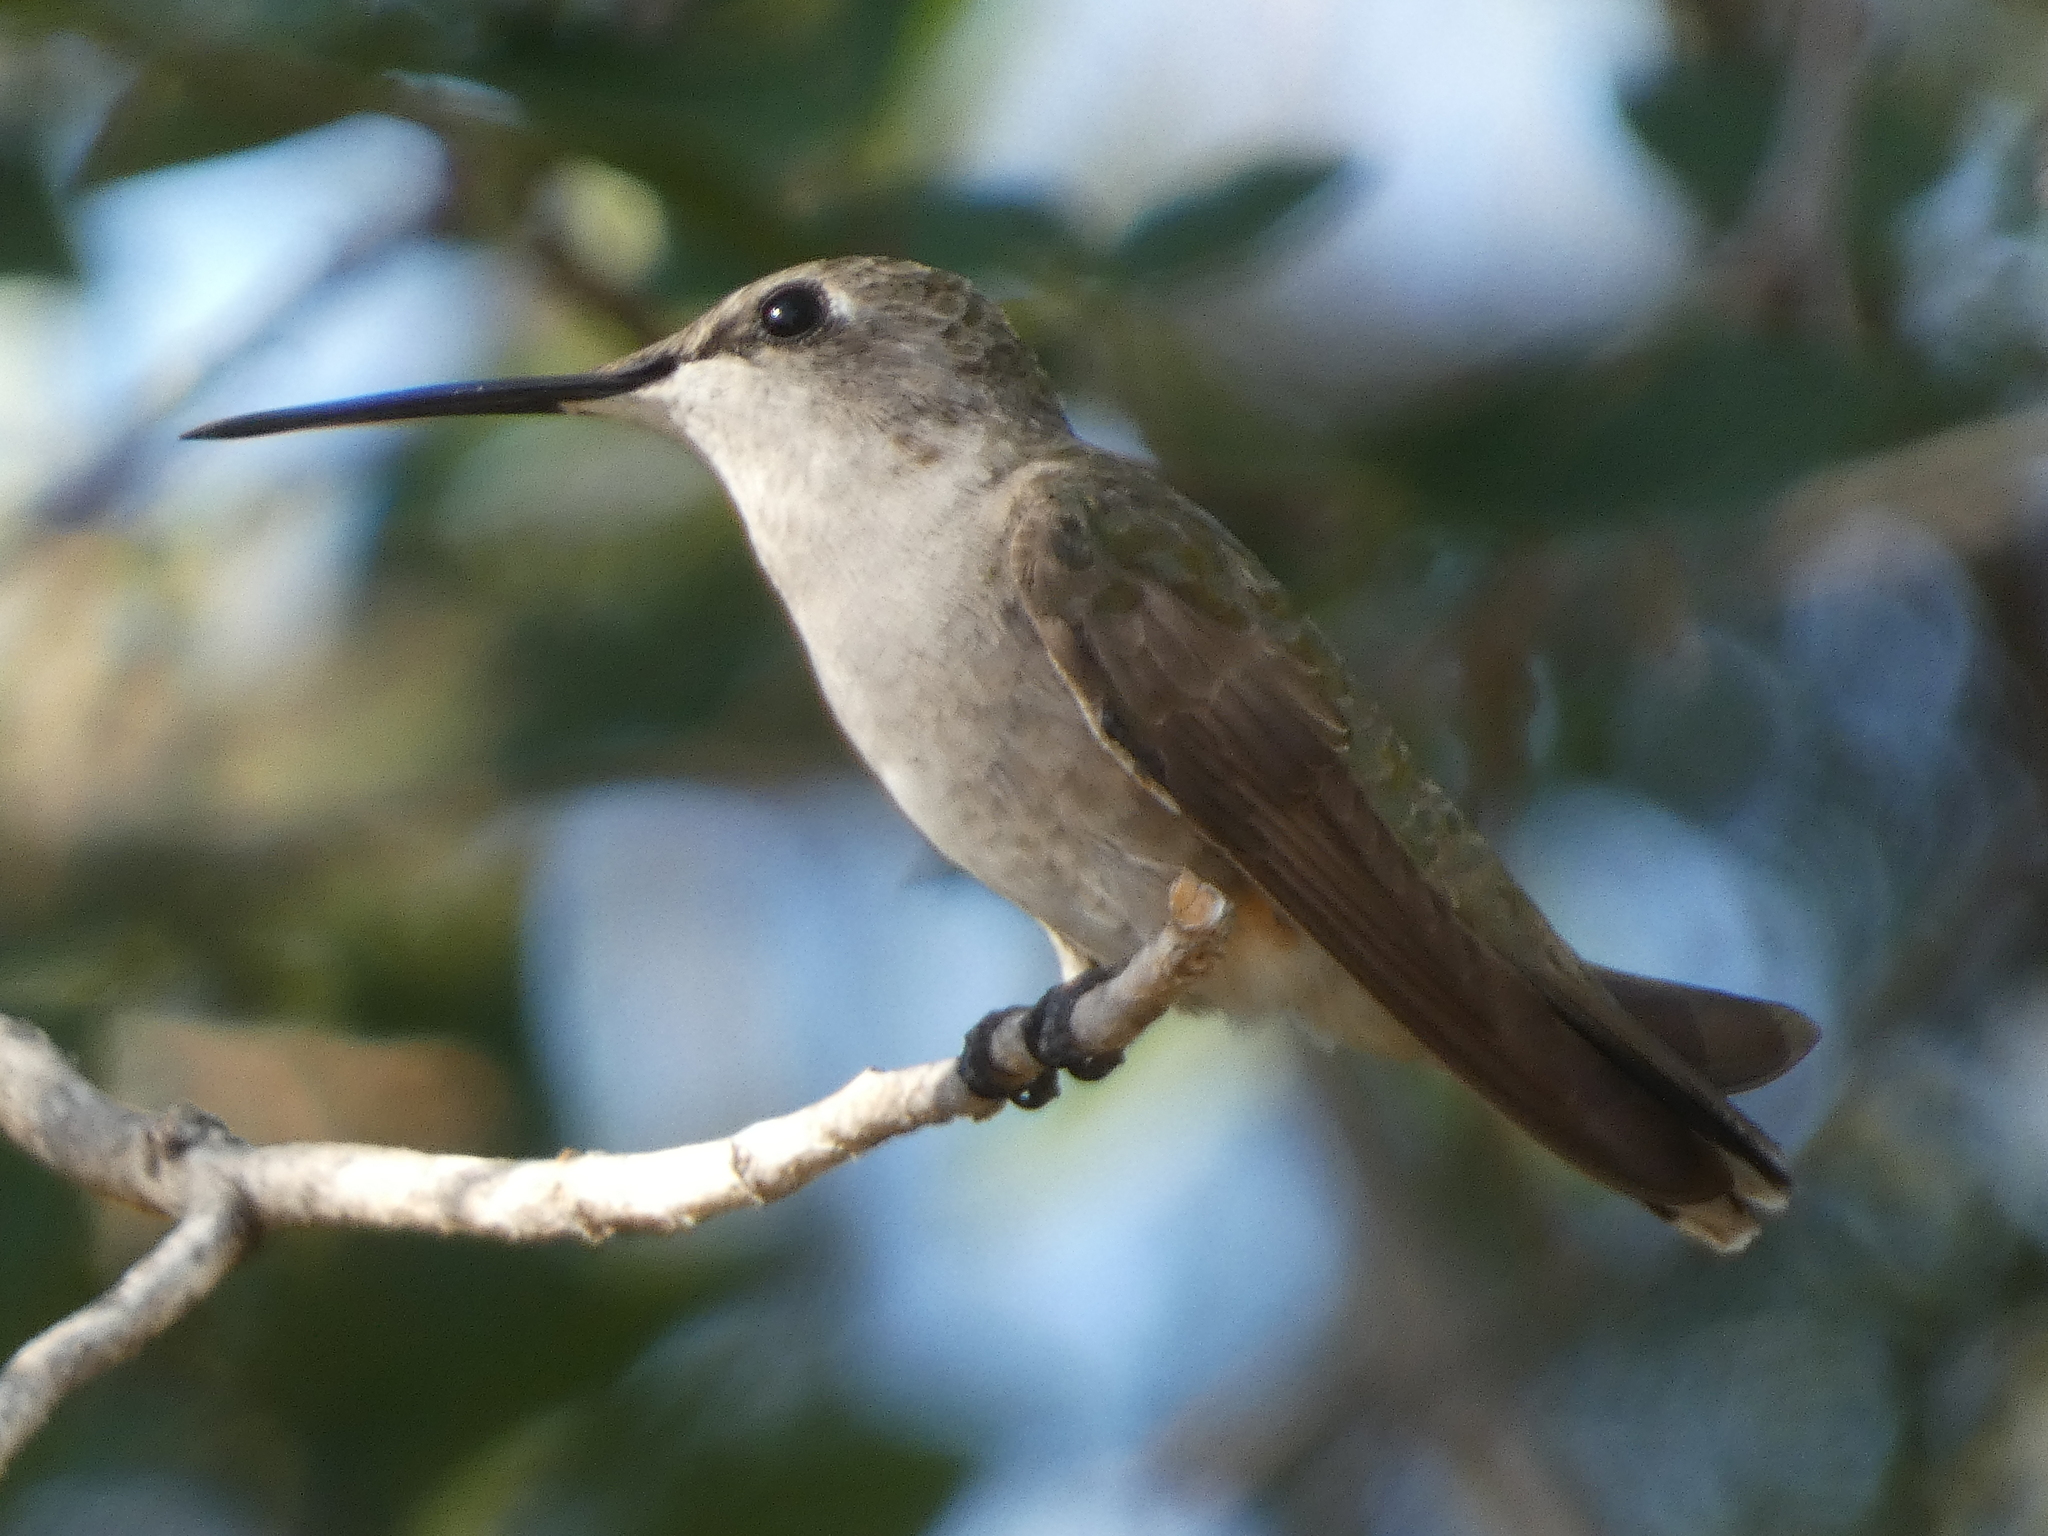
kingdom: Animalia
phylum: Chordata
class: Aves
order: Apodiformes
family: Trochilidae
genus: Archilochus
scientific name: Archilochus alexandri
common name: Black-chinned hummingbird
